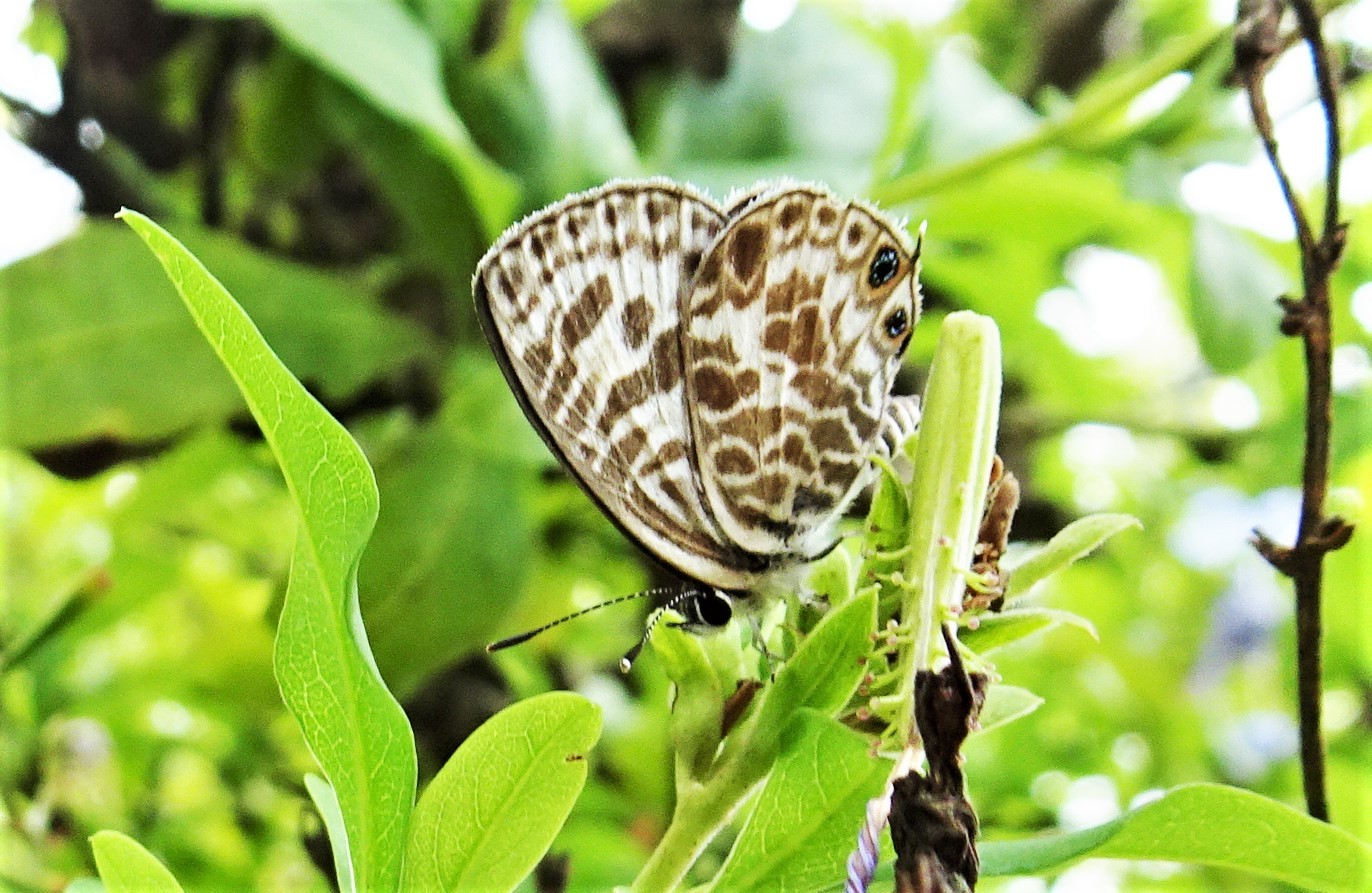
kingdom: Animalia
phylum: Arthropoda
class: Insecta
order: Lepidoptera
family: Lycaenidae
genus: Leptotes
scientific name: Leptotes plinius
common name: Zebra blue
